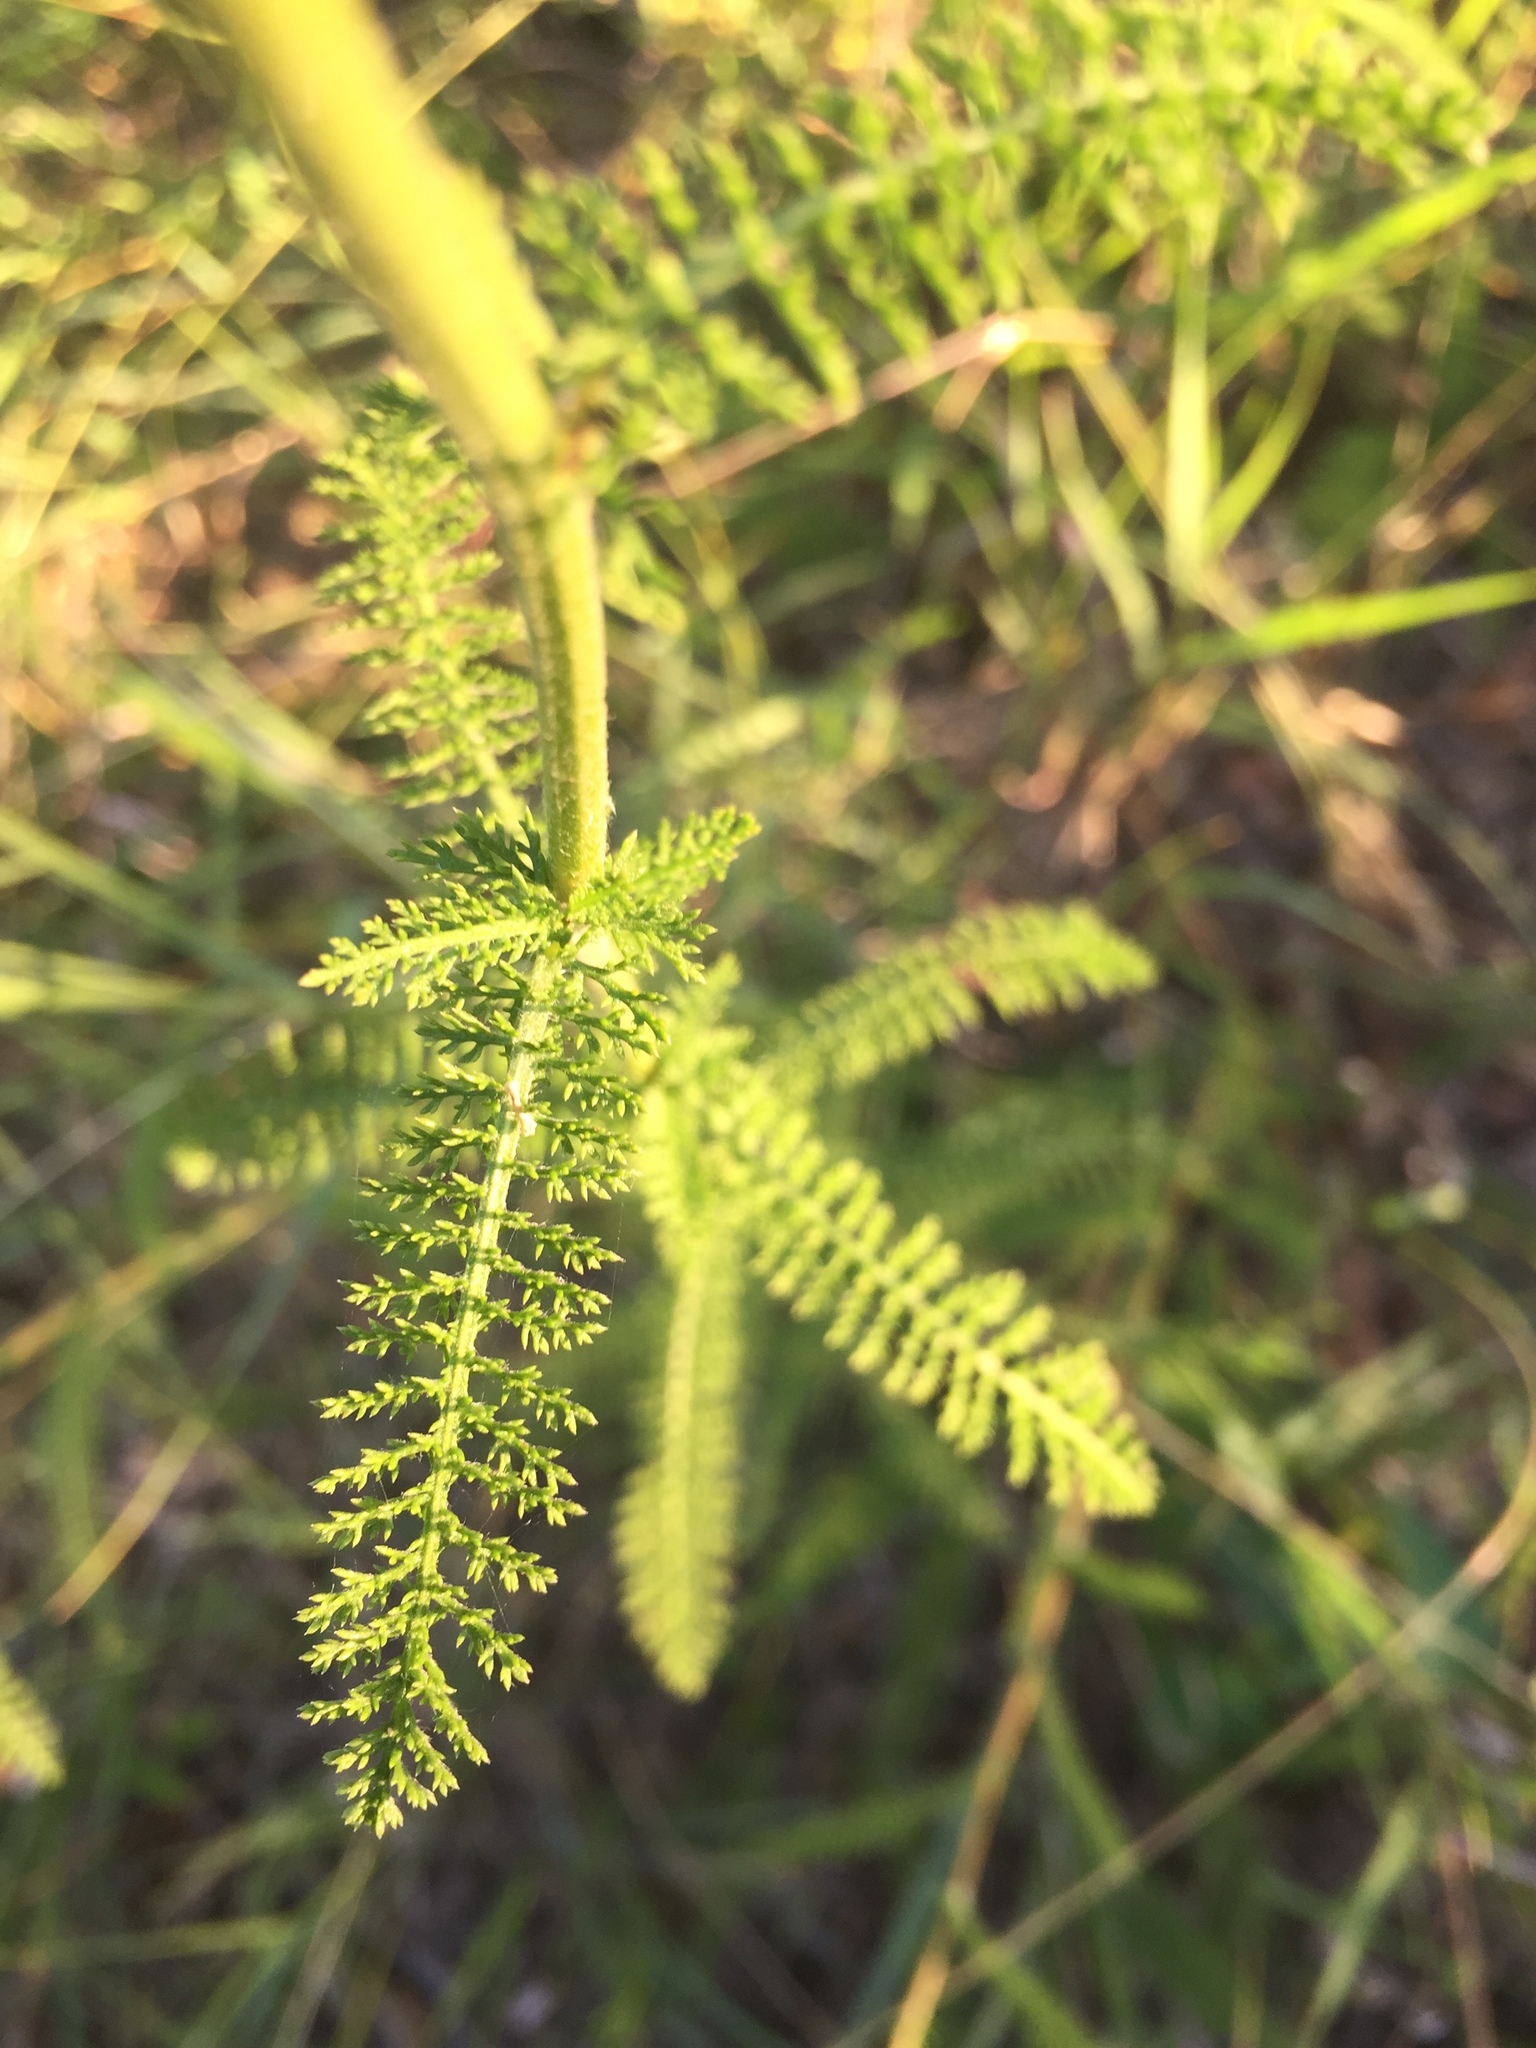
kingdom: Plantae
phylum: Tracheophyta
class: Magnoliopsida
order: Asterales
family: Asteraceae
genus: Achillea
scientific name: Achillea millefolium
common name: Yarrow
